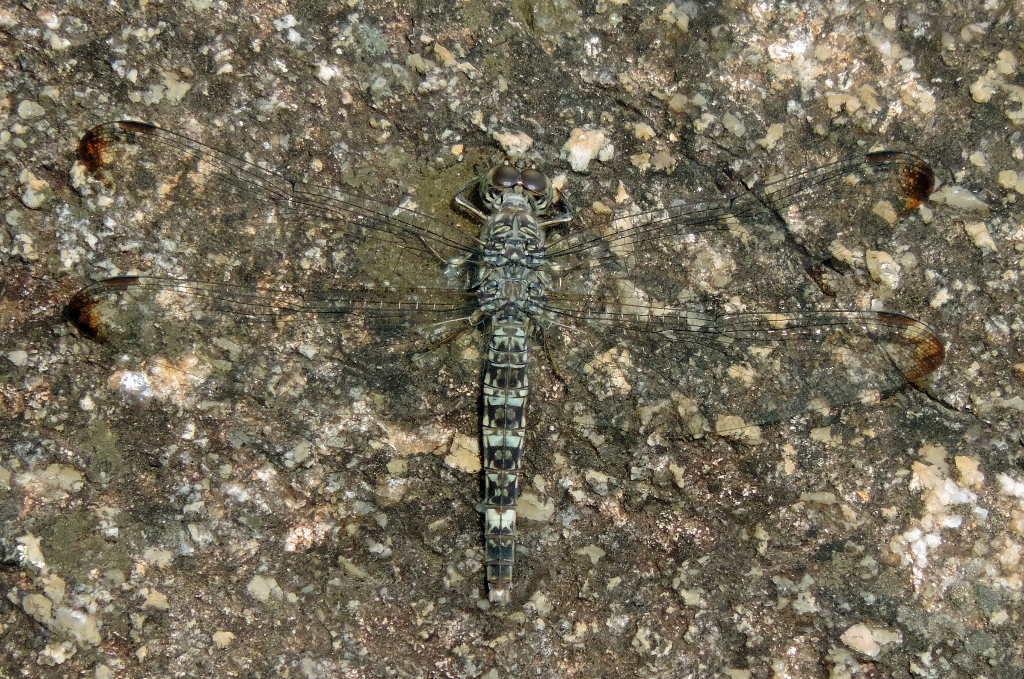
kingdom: Animalia
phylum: Arthropoda
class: Insecta
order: Odonata
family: Libellulidae
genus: Bradinopyga
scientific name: Bradinopyga cornuta
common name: Flecked wall-skimmer
